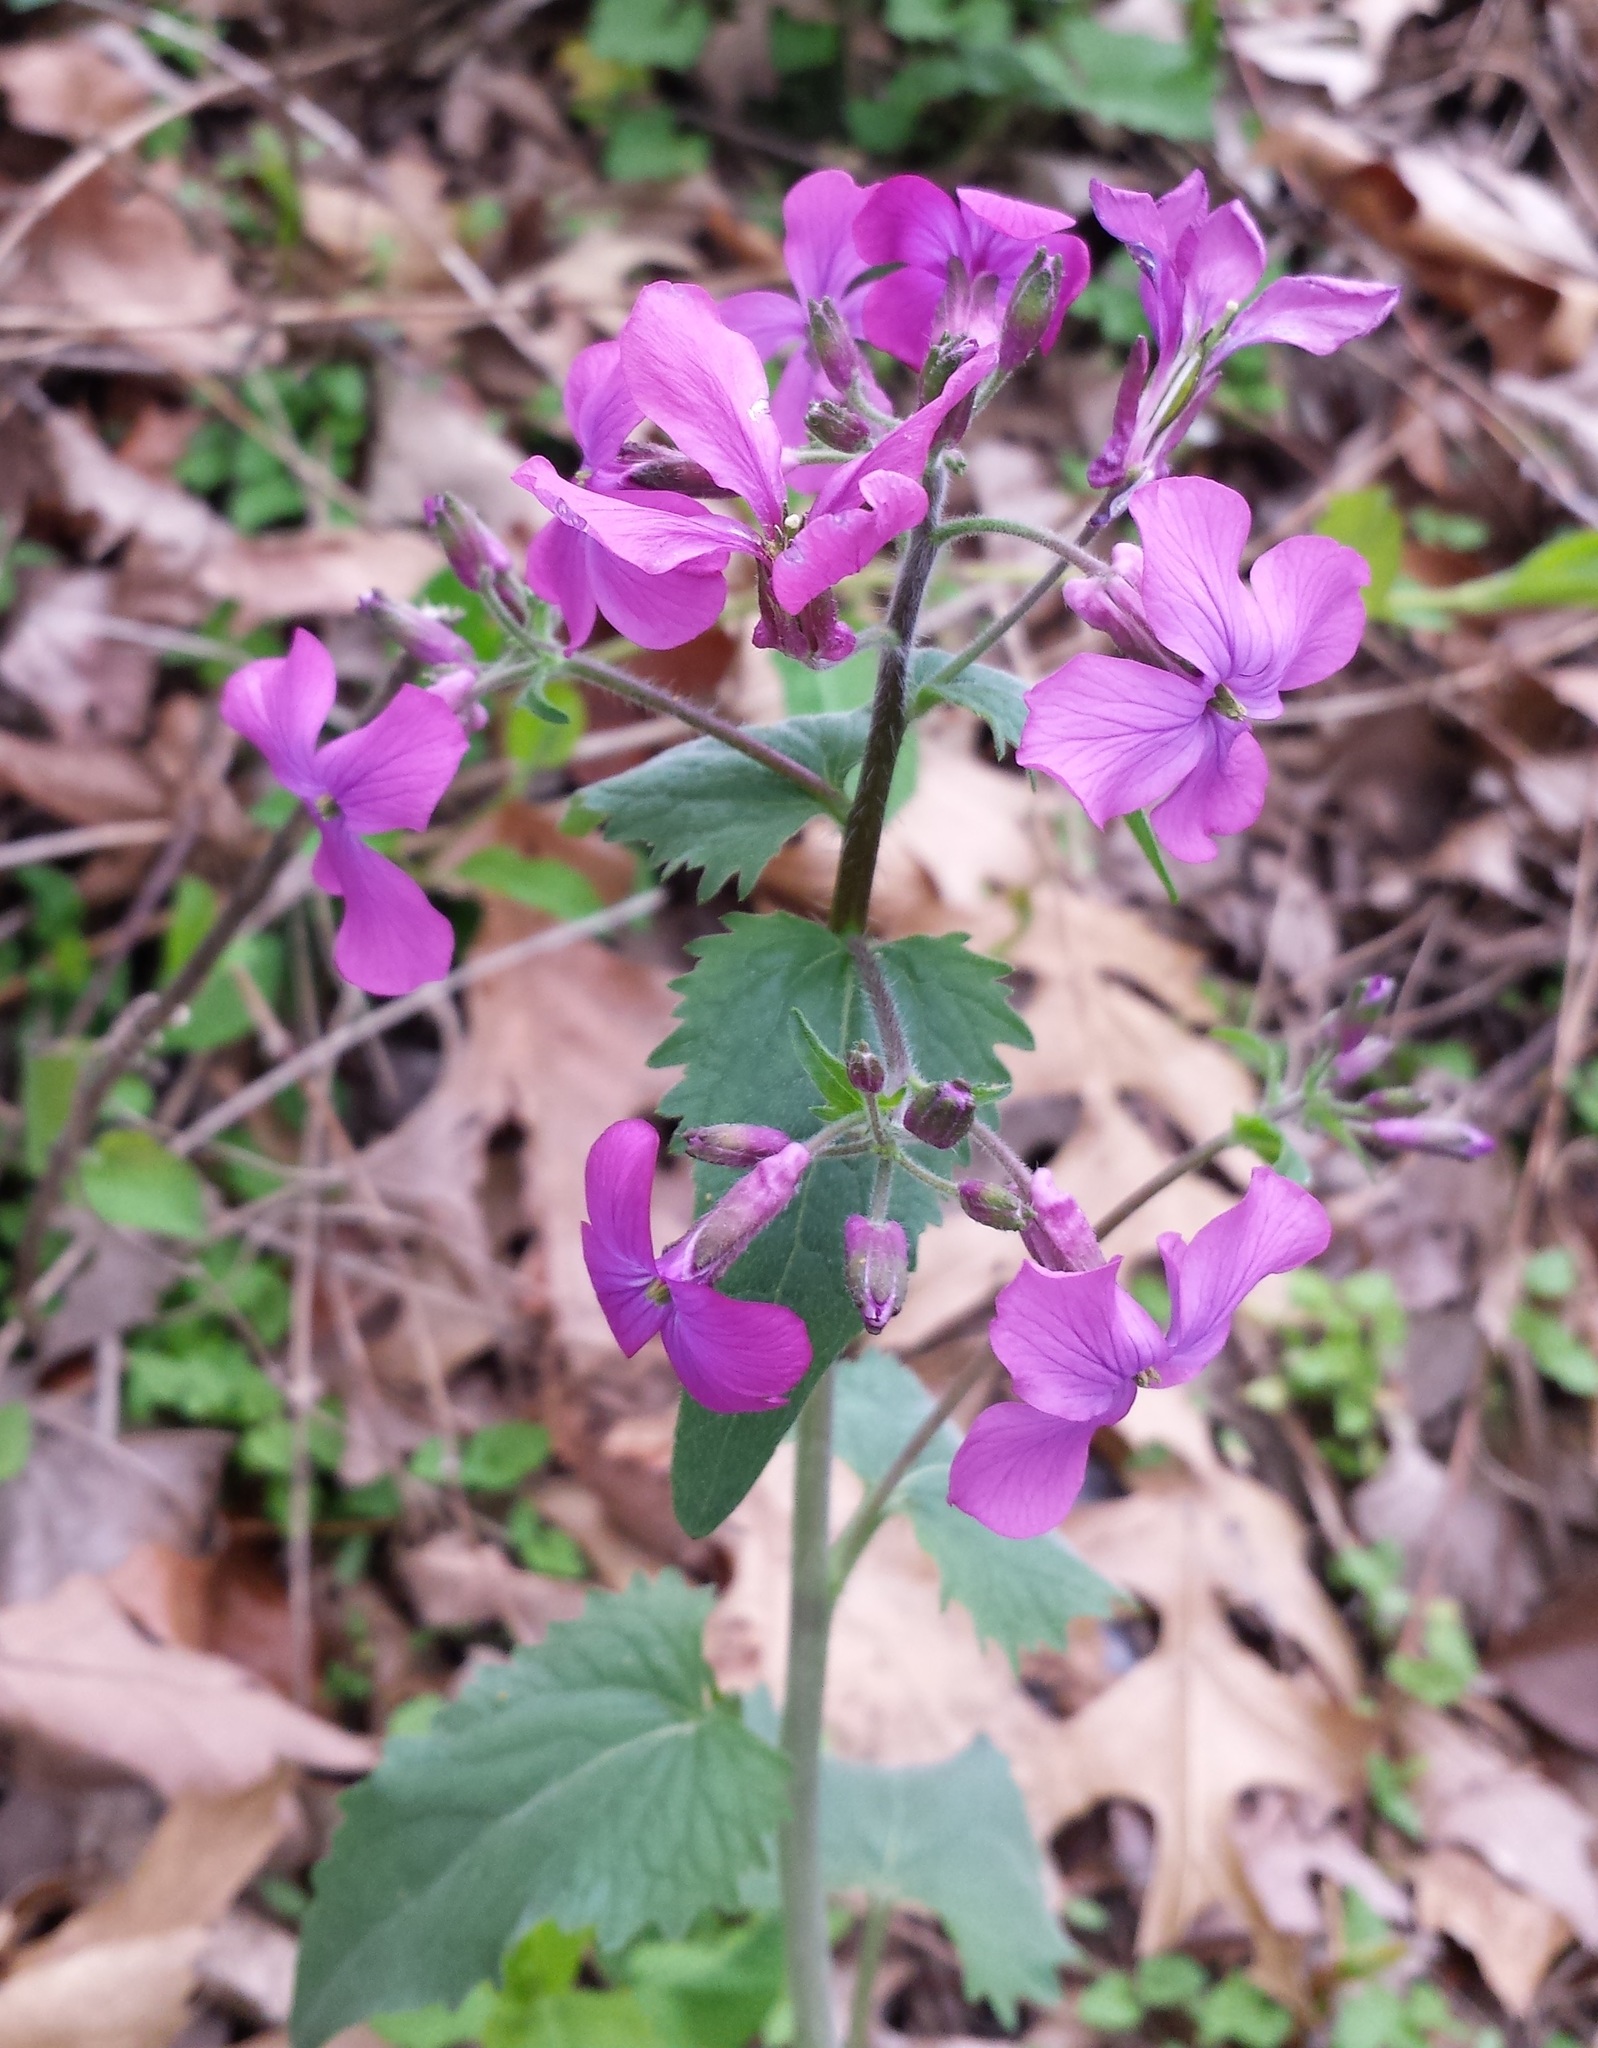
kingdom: Plantae
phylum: Tracheophyta
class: Magnoliopsida
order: Brassicales
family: Brassicaceae
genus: Hesperis
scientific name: Hesperis matronalis
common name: Dame's-violet
